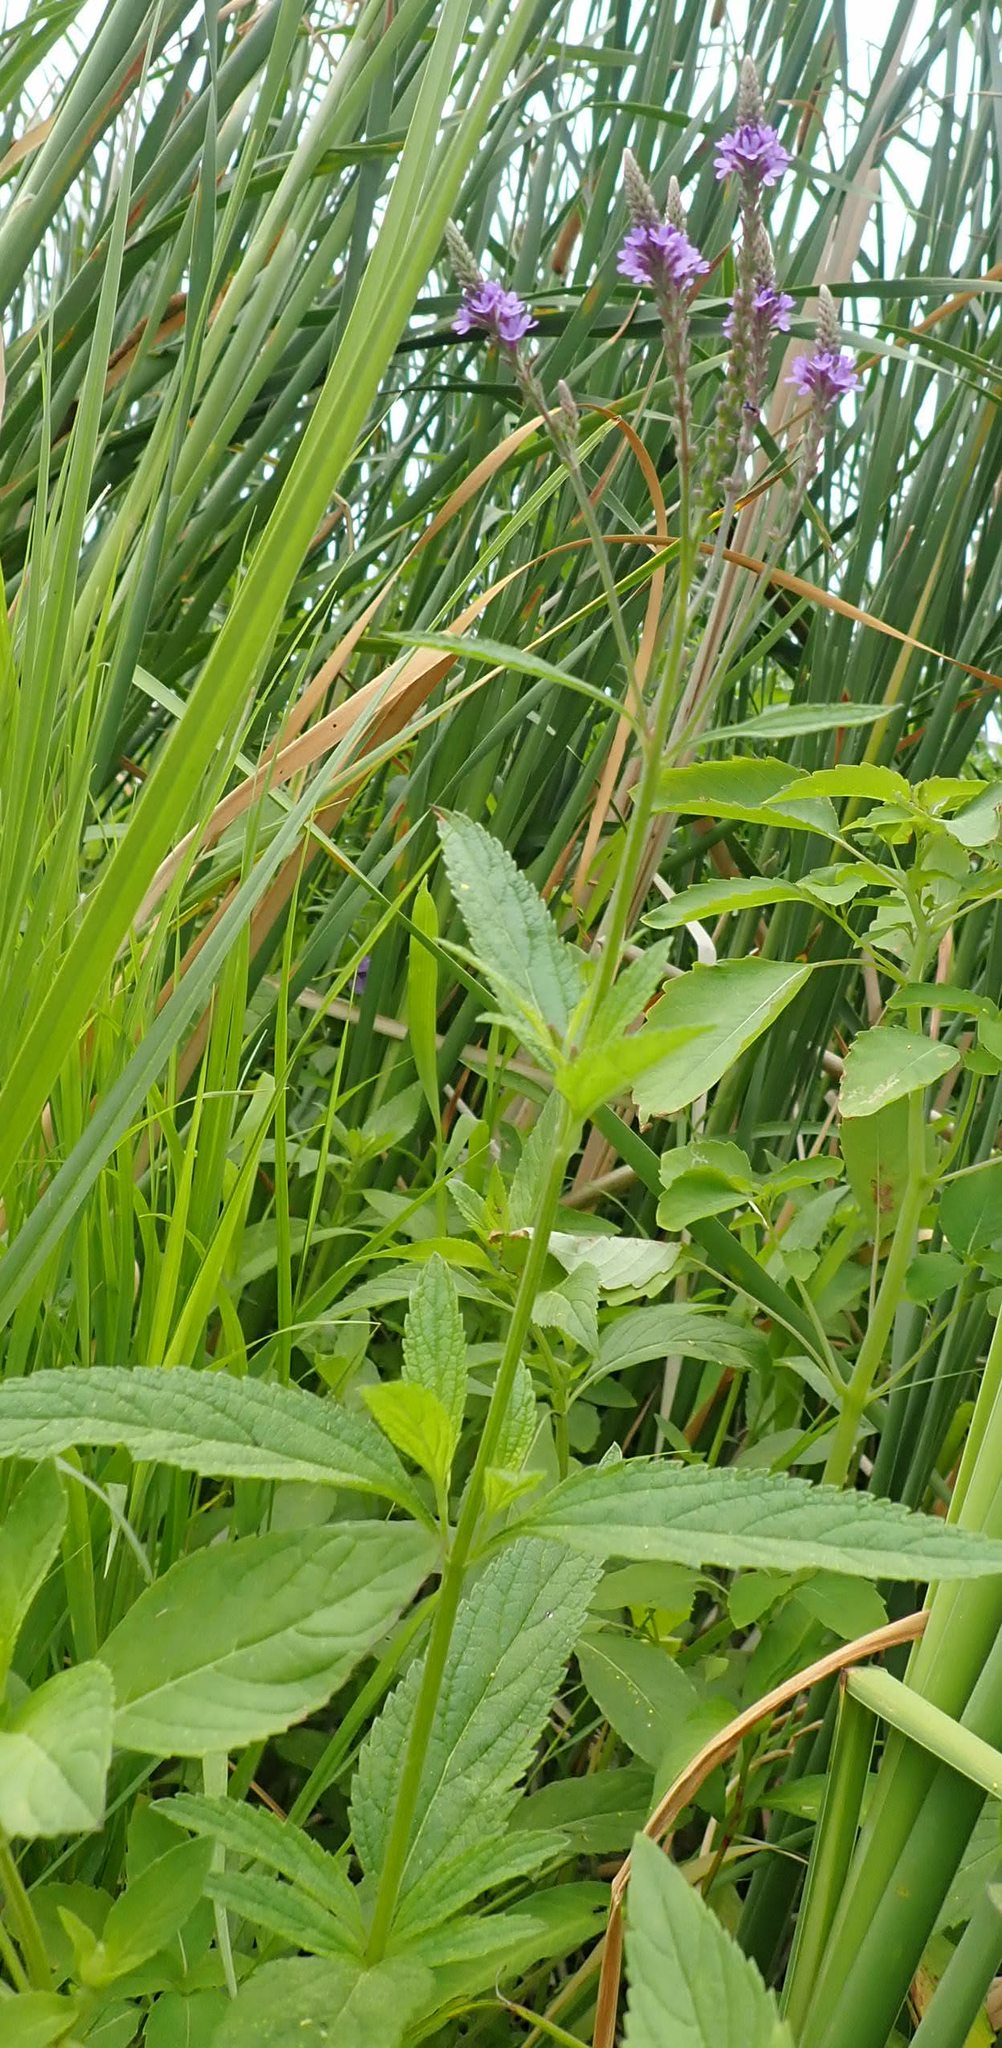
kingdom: Plantae
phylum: Tracheophyta
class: Magnoliopsida
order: Lamiales
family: Verbenaceae
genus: Verbena
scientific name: Verbena hastata
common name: American blue vervain
